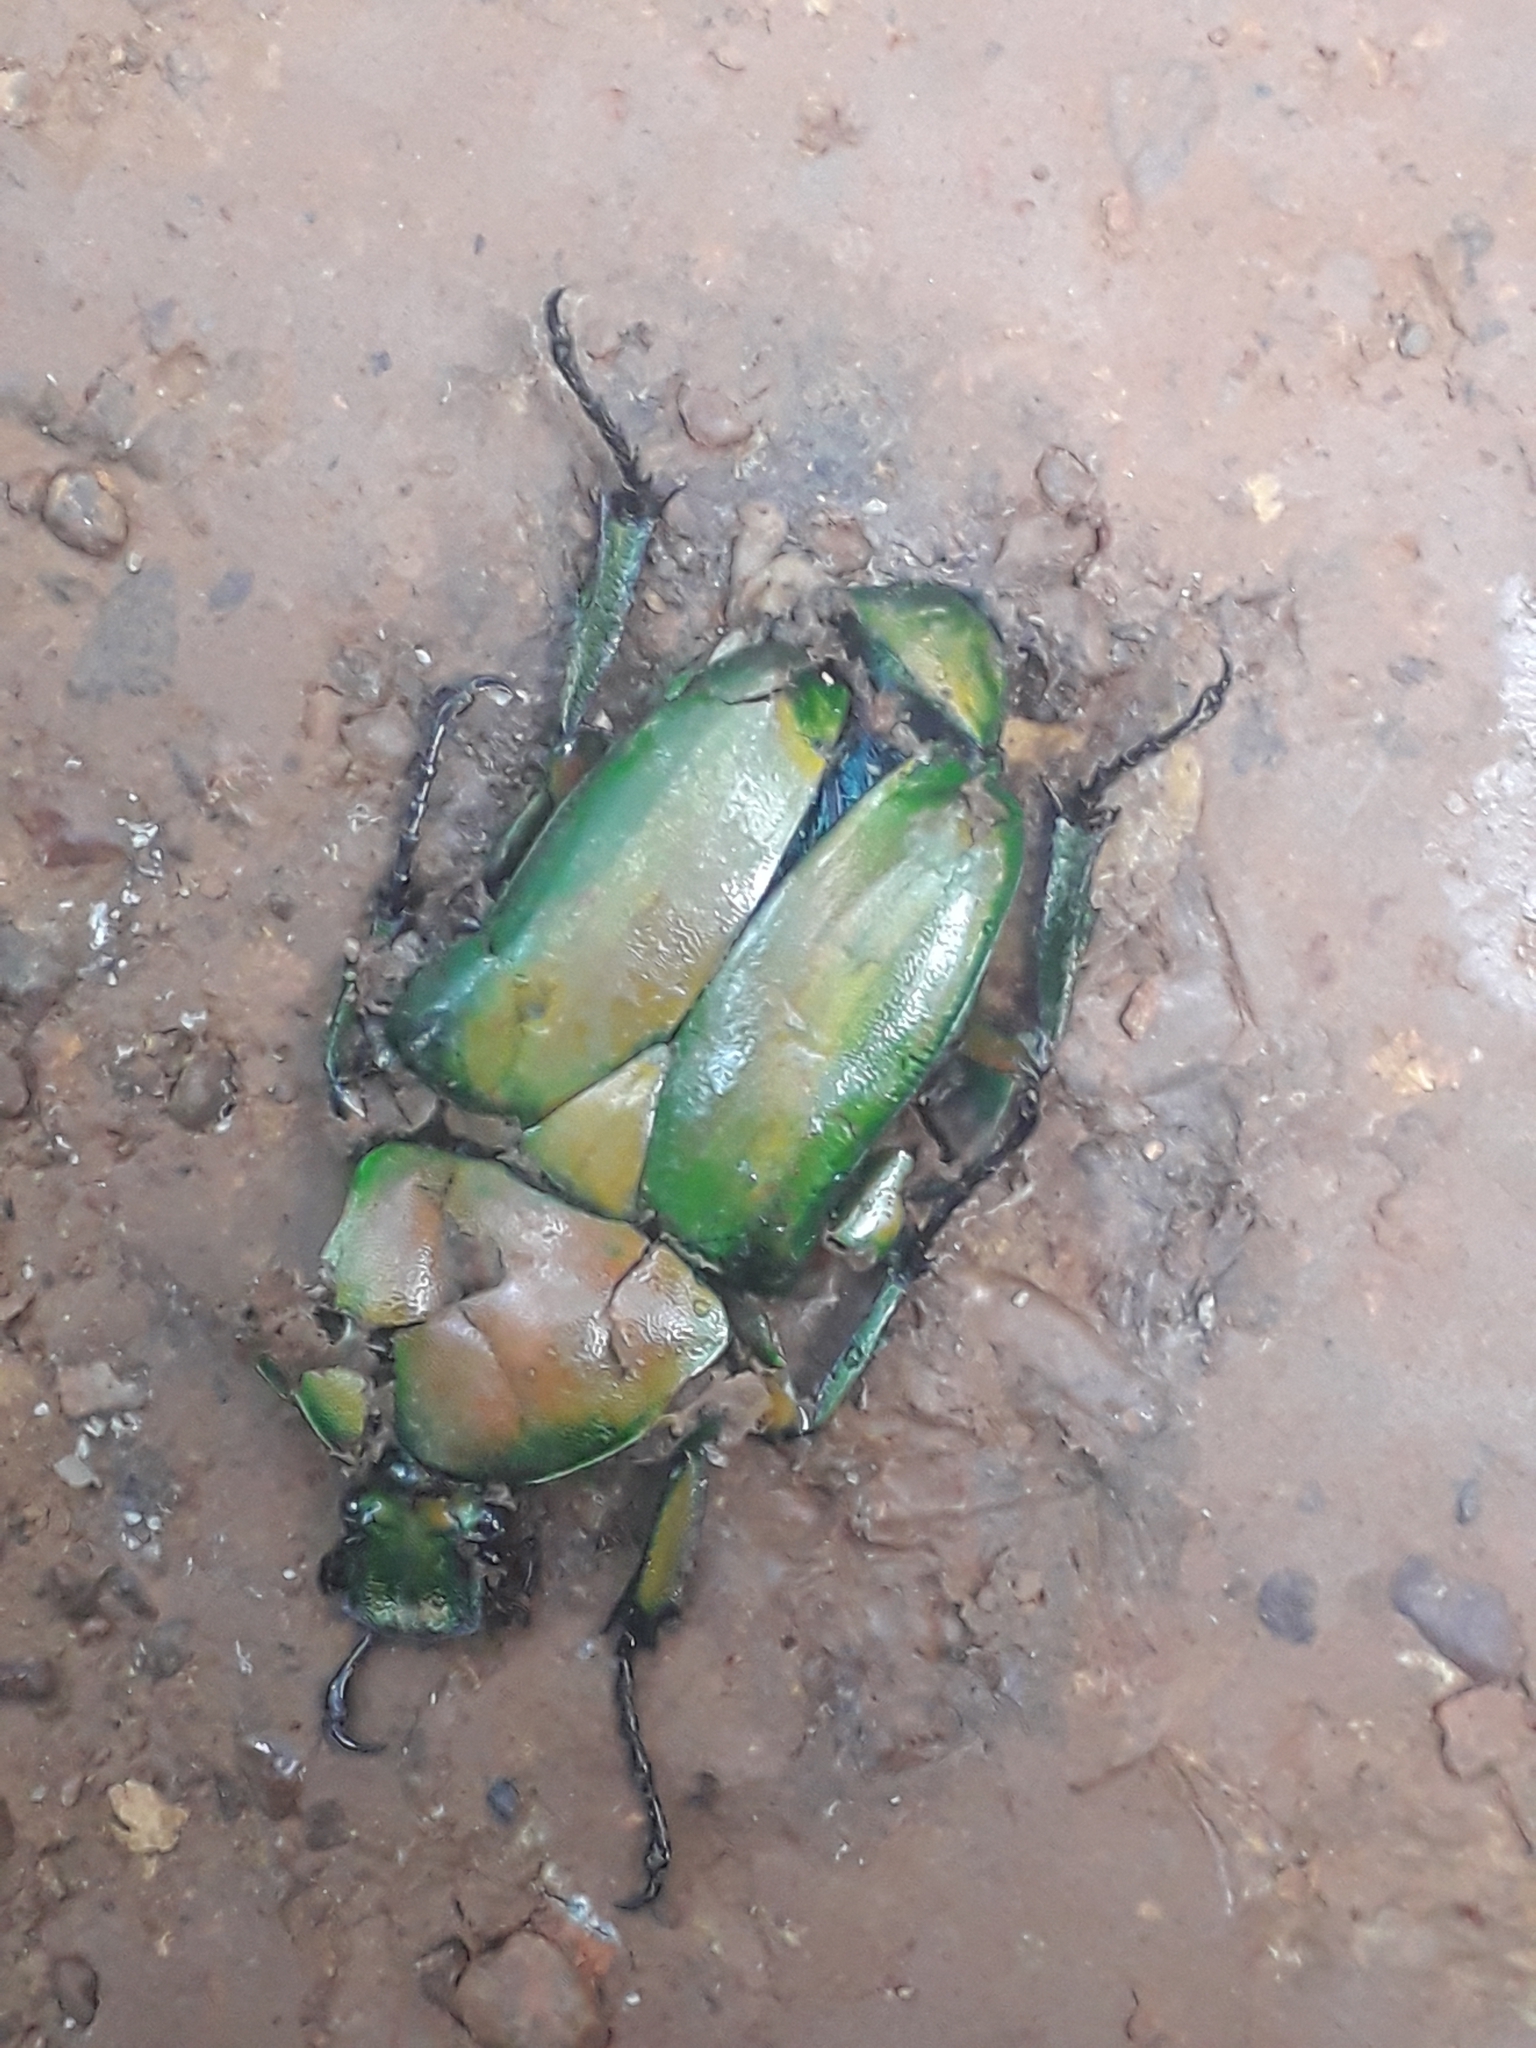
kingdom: Animalia
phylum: Arthropoda
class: Insecta
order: Coleoptera
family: Scarabaeidae
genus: Dicronorhina
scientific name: Dicronorhina johnstoni
